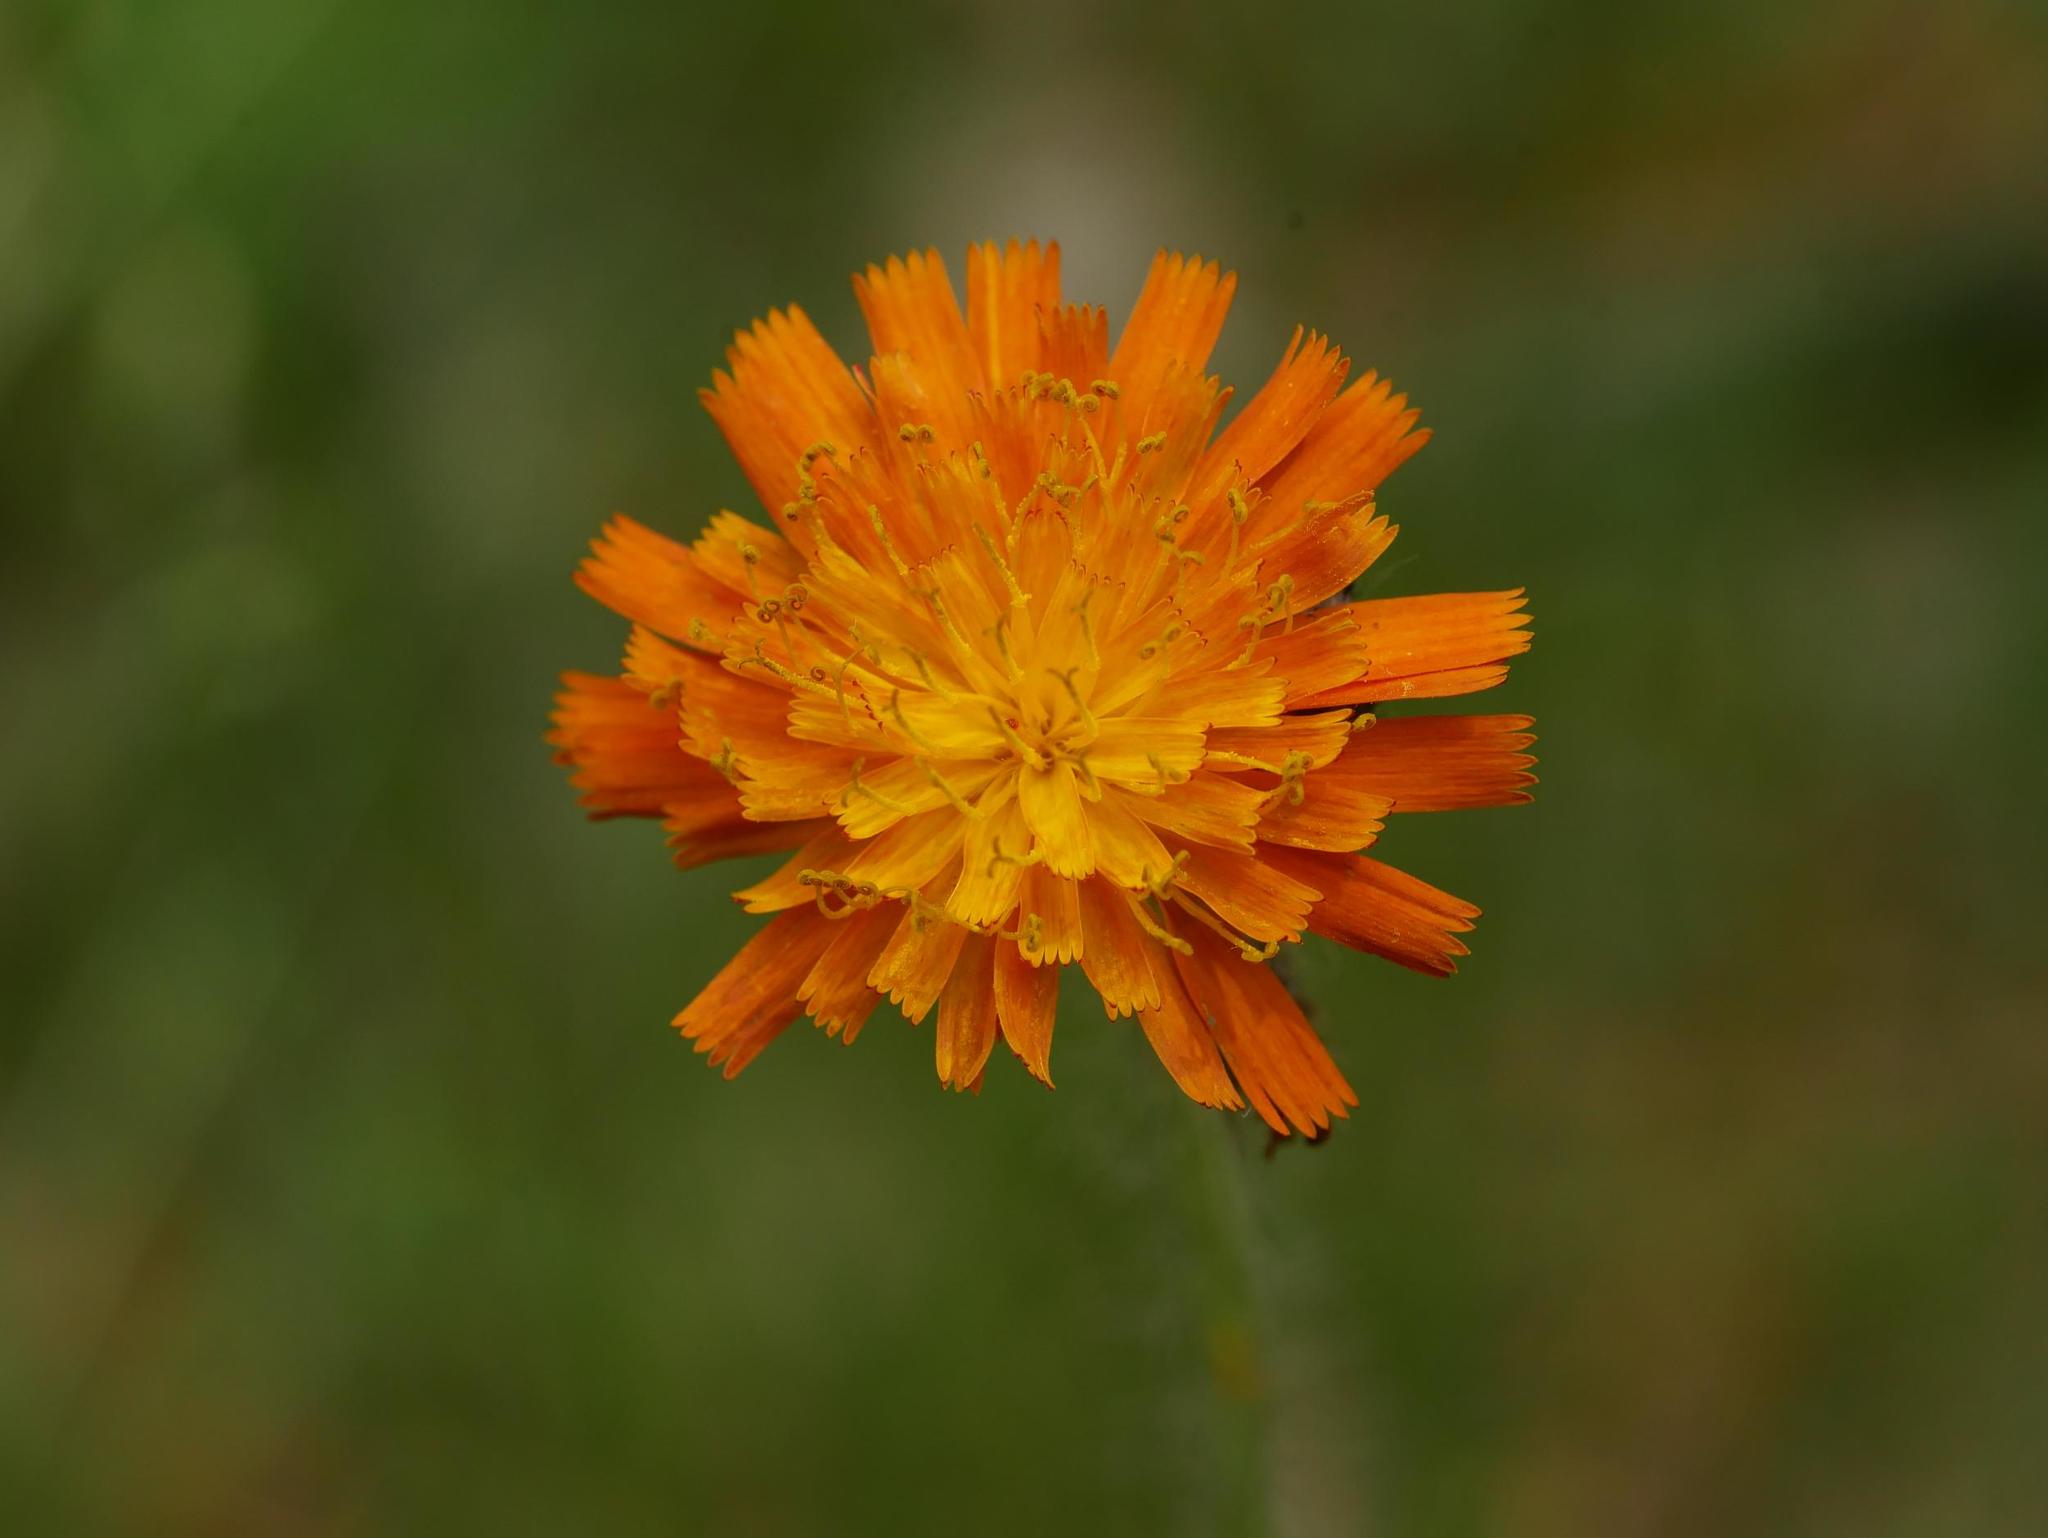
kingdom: Plantae
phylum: Tracheophyta
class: Magnoliopsida
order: Asterales
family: Asteraceae
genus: Pilosella
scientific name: Pilosella aurantiaca
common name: Fox-and-cubs
